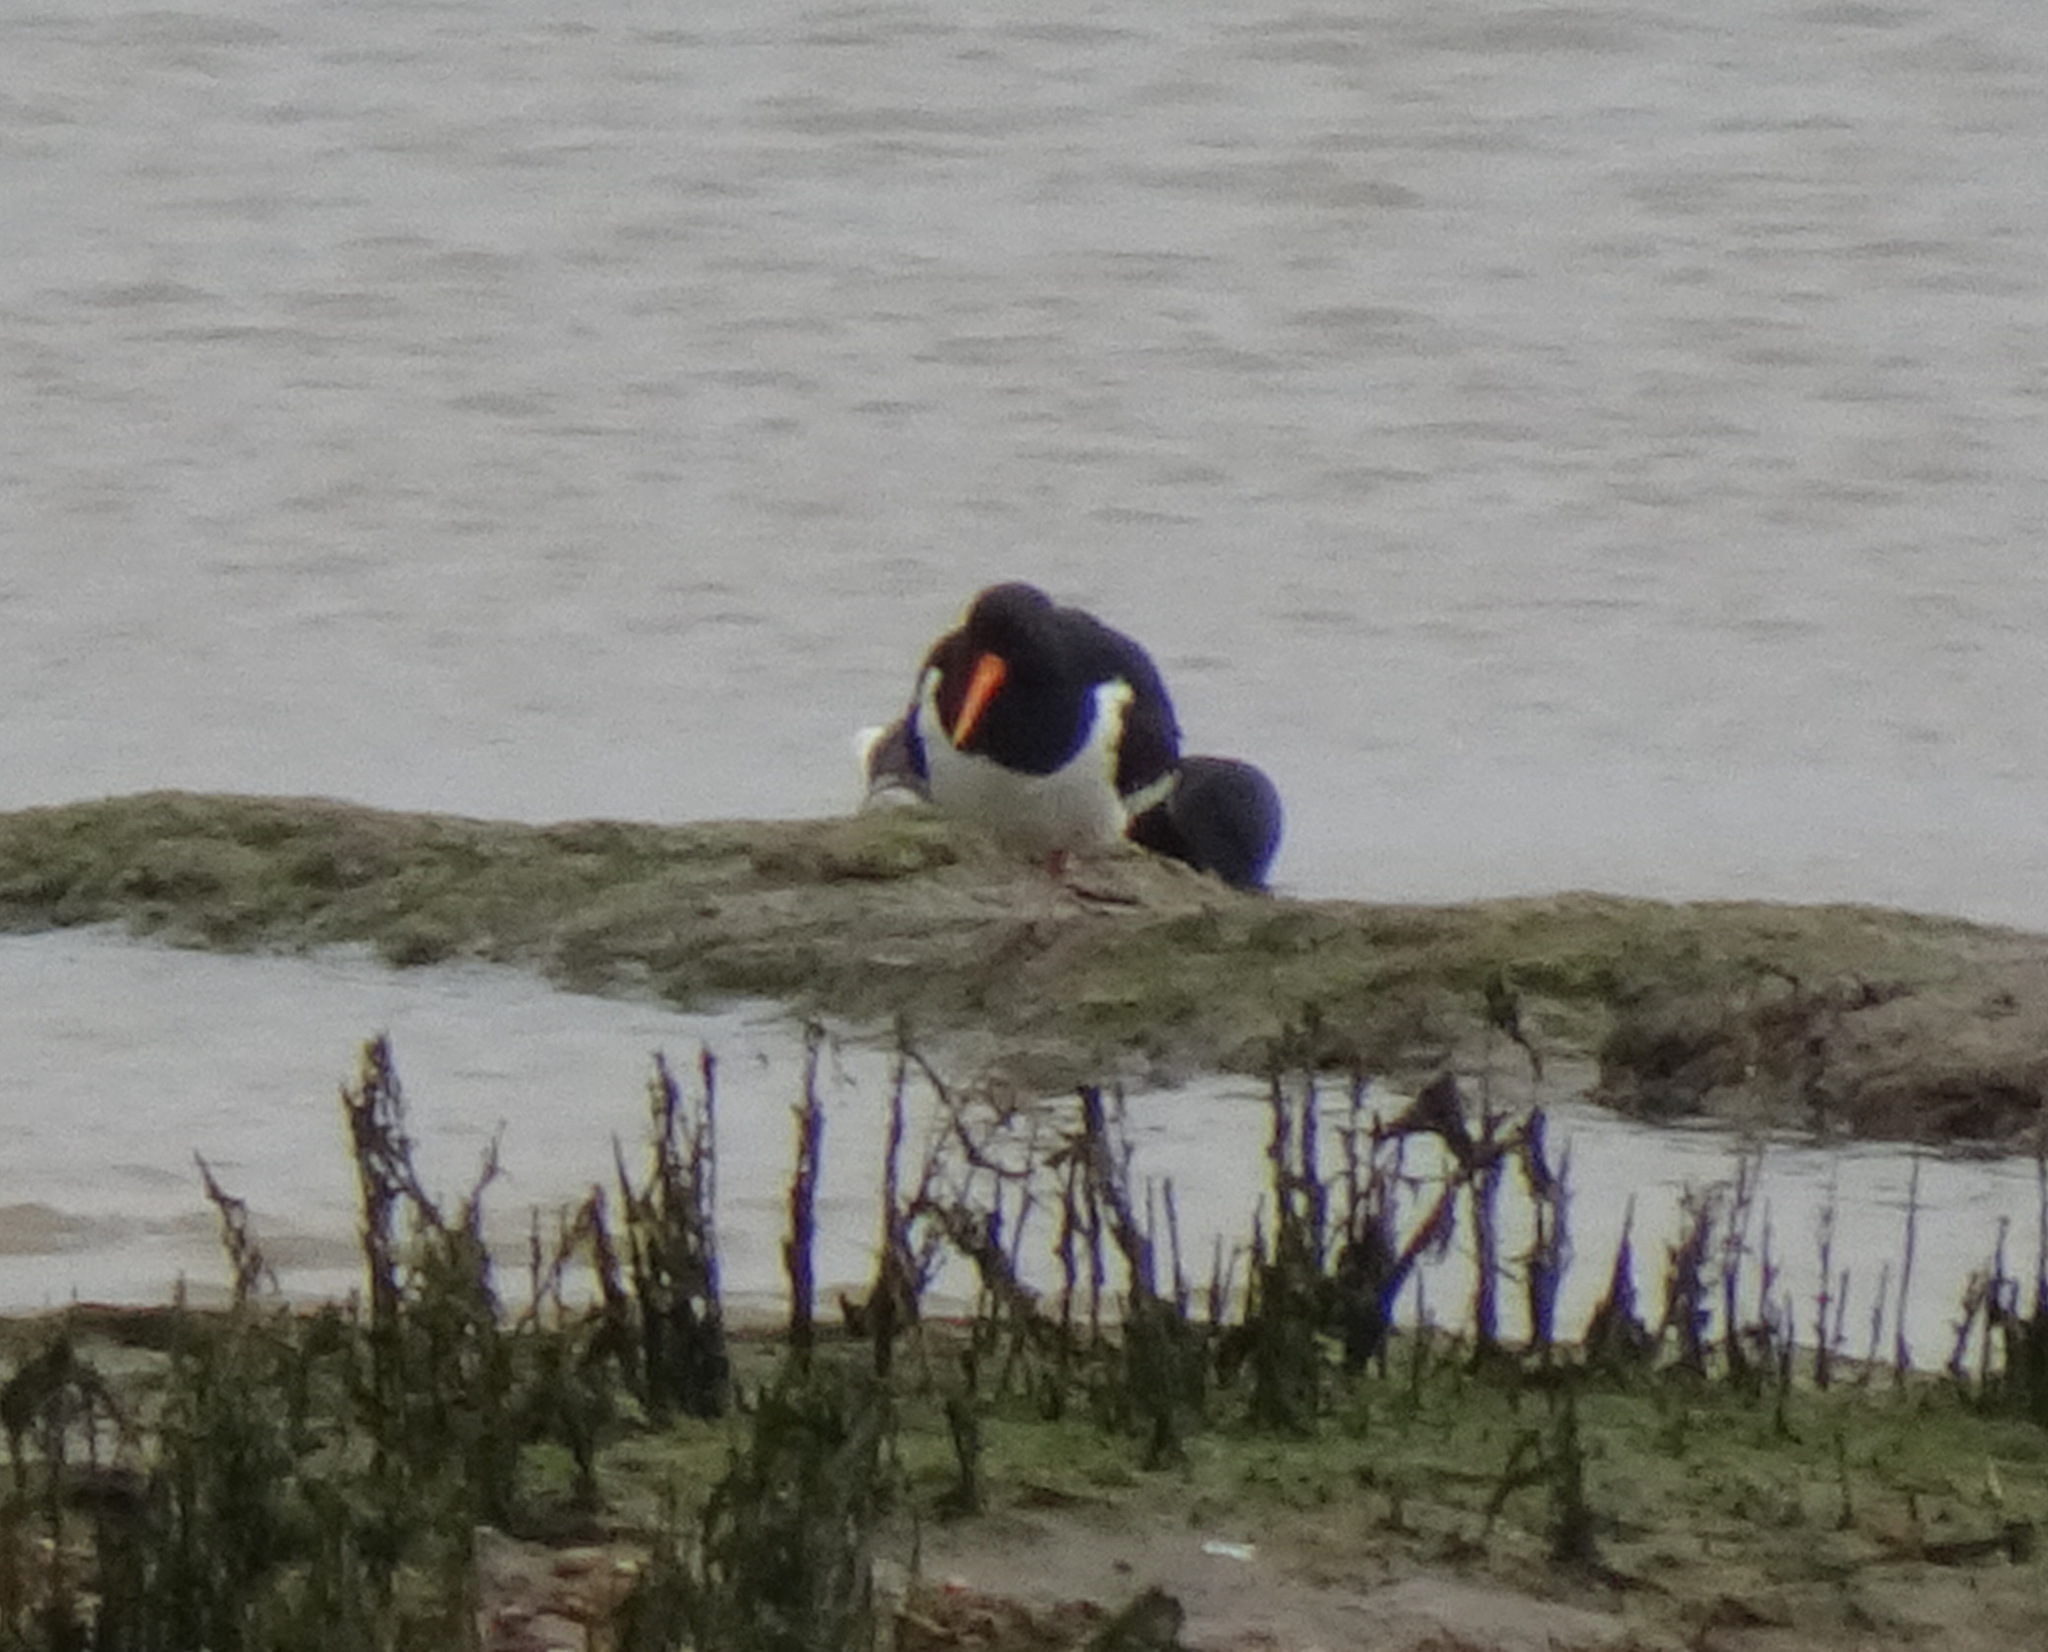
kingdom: Animalia
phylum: Chordata
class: Aves
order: Charadriiformes
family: Haematopodidae
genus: Haematopus
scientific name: Haematopus ostralegus
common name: Eurasian oystercatcher
